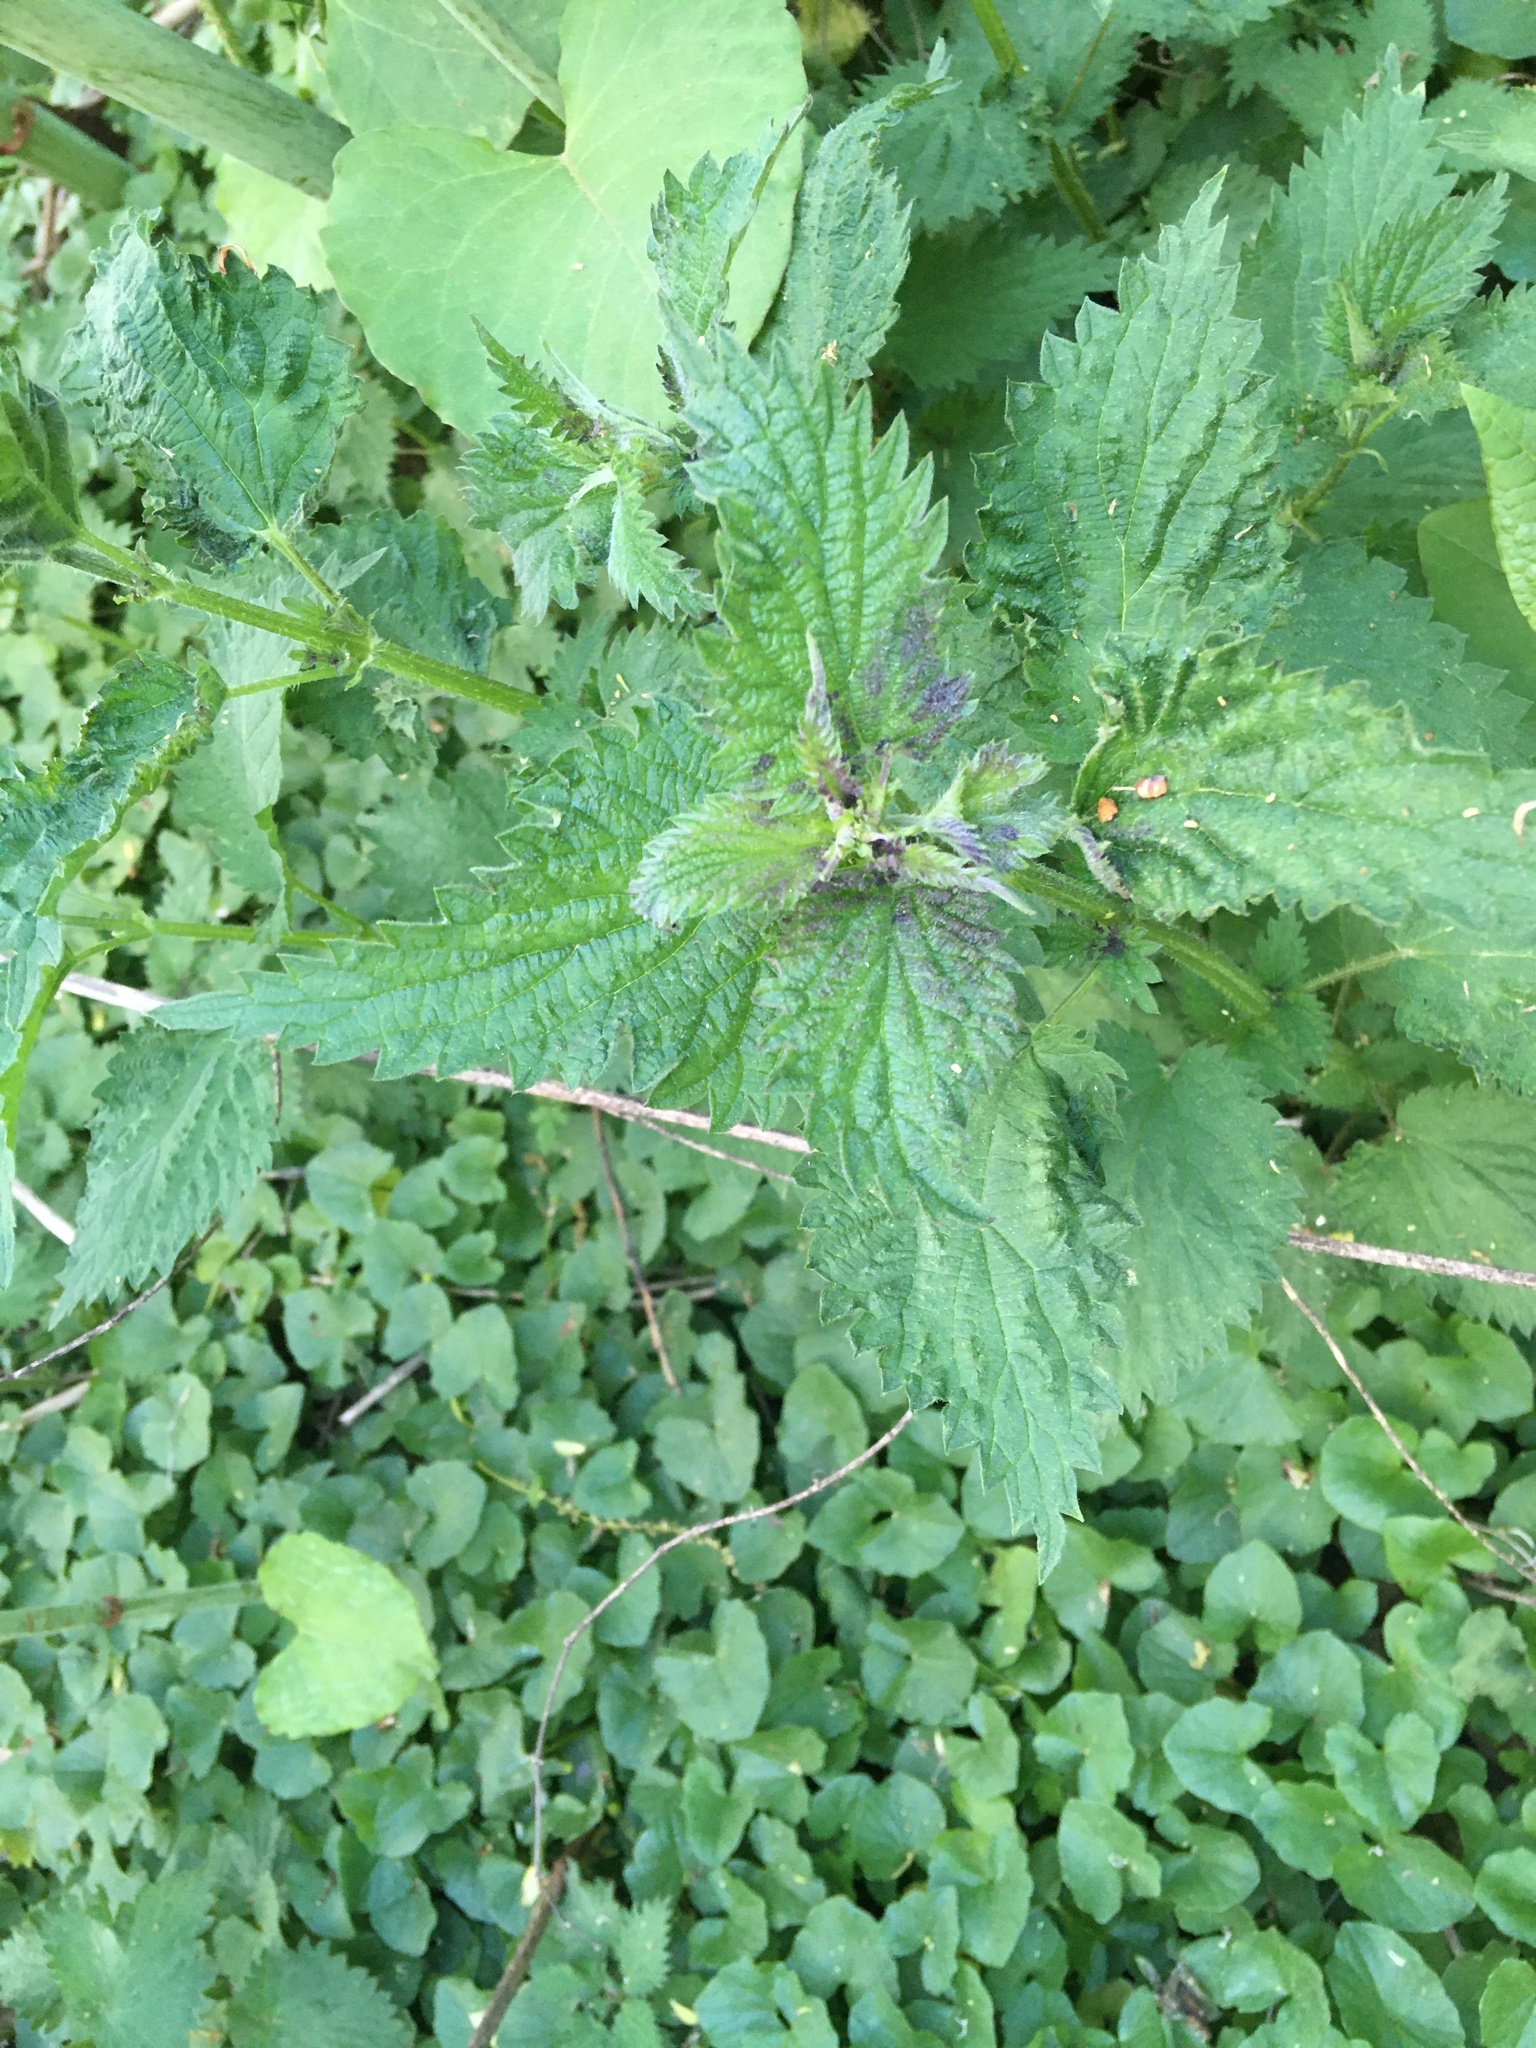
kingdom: Plantae
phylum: Tracheophyta
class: Magnoliopsida
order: Rosales
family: Urticaceae
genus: Urtica
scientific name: Urtica dioica
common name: Common nettle
